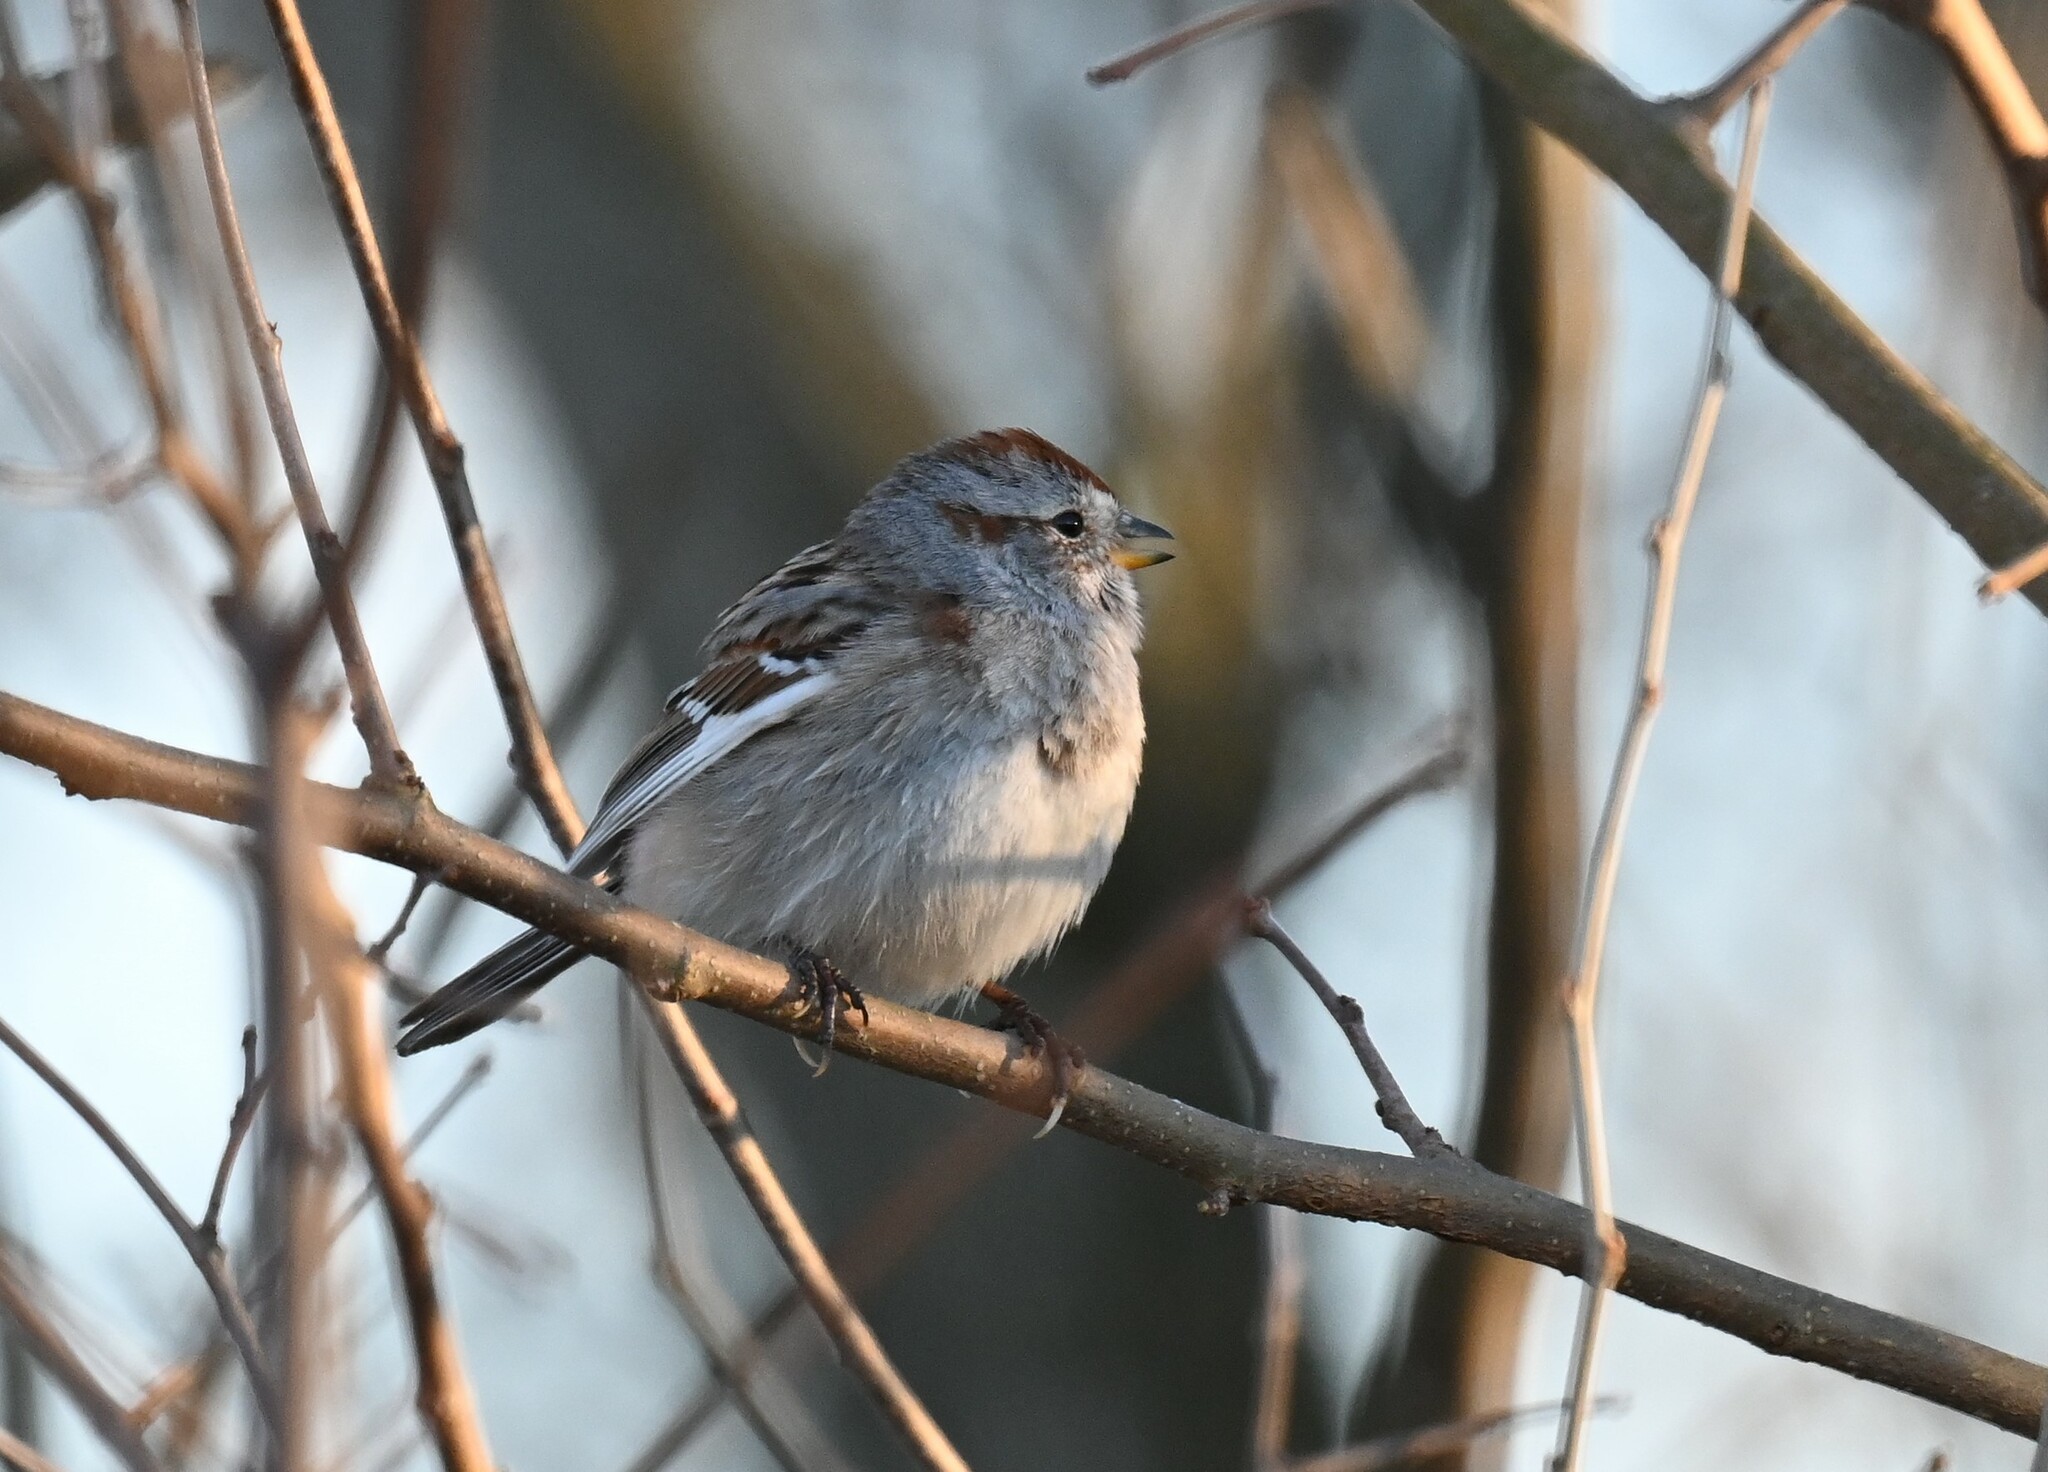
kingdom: Animalia
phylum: Chordata
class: Aves
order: Passeriformes
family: Passerellidae
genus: Spizelloides
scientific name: Spizelloides arborea
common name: American tree sparrow
